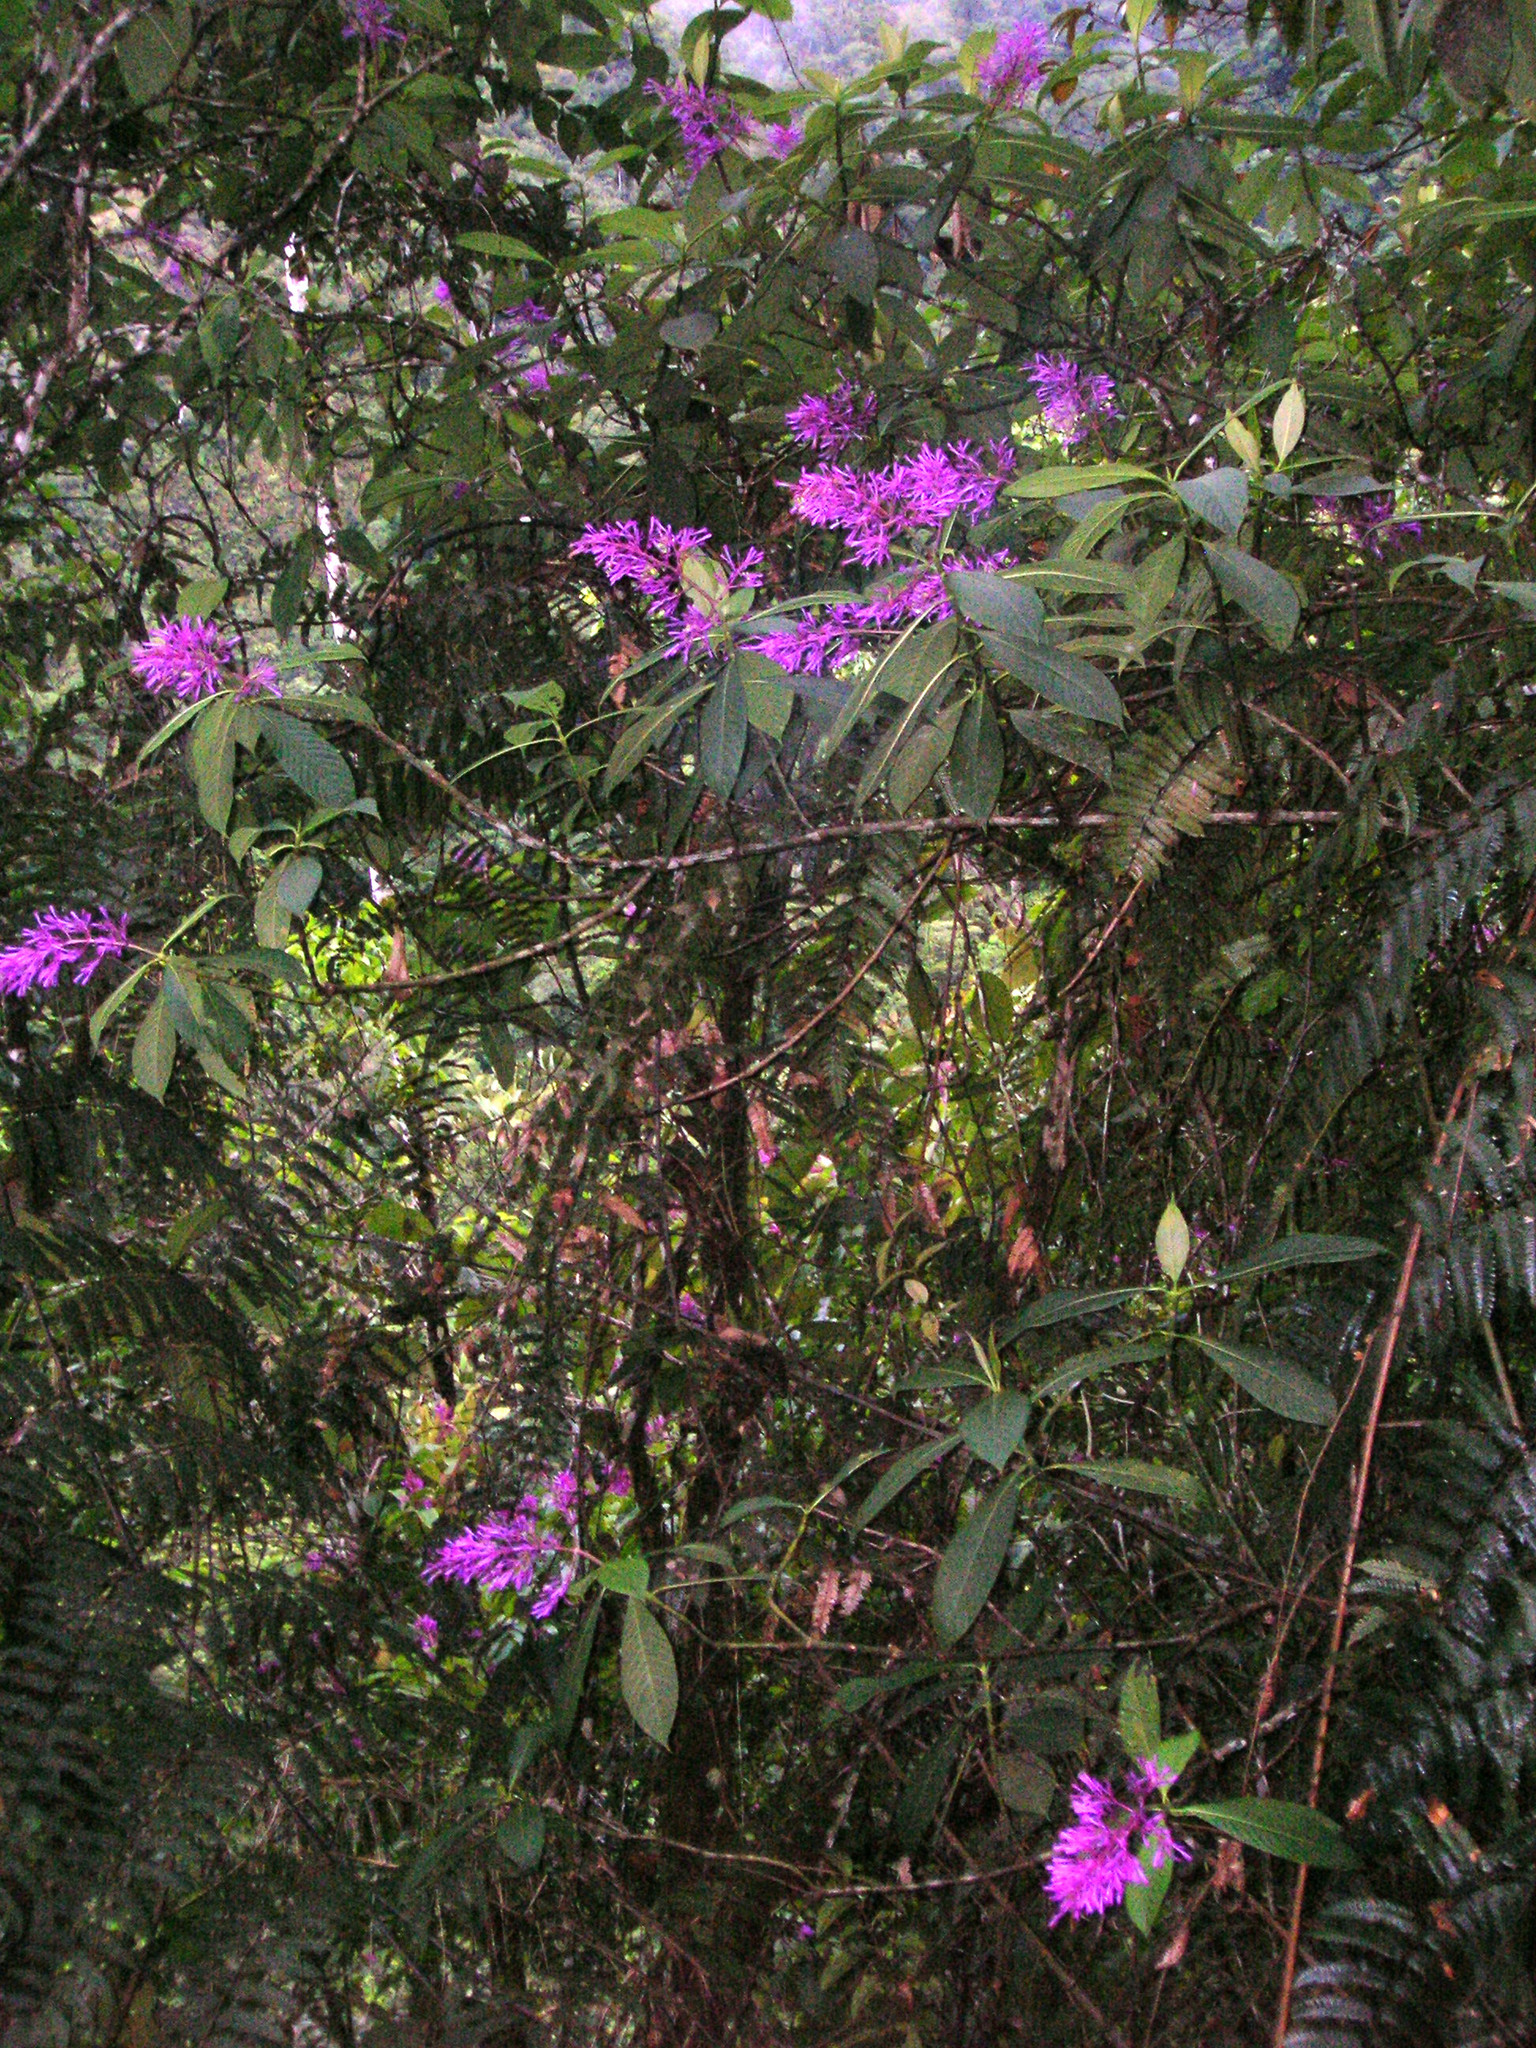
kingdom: Plantae
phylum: Tracheophyta
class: Magnoliopsida
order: Gentianales
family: Rubiaceae
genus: Palicourea
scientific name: Palicourea angustifolia
